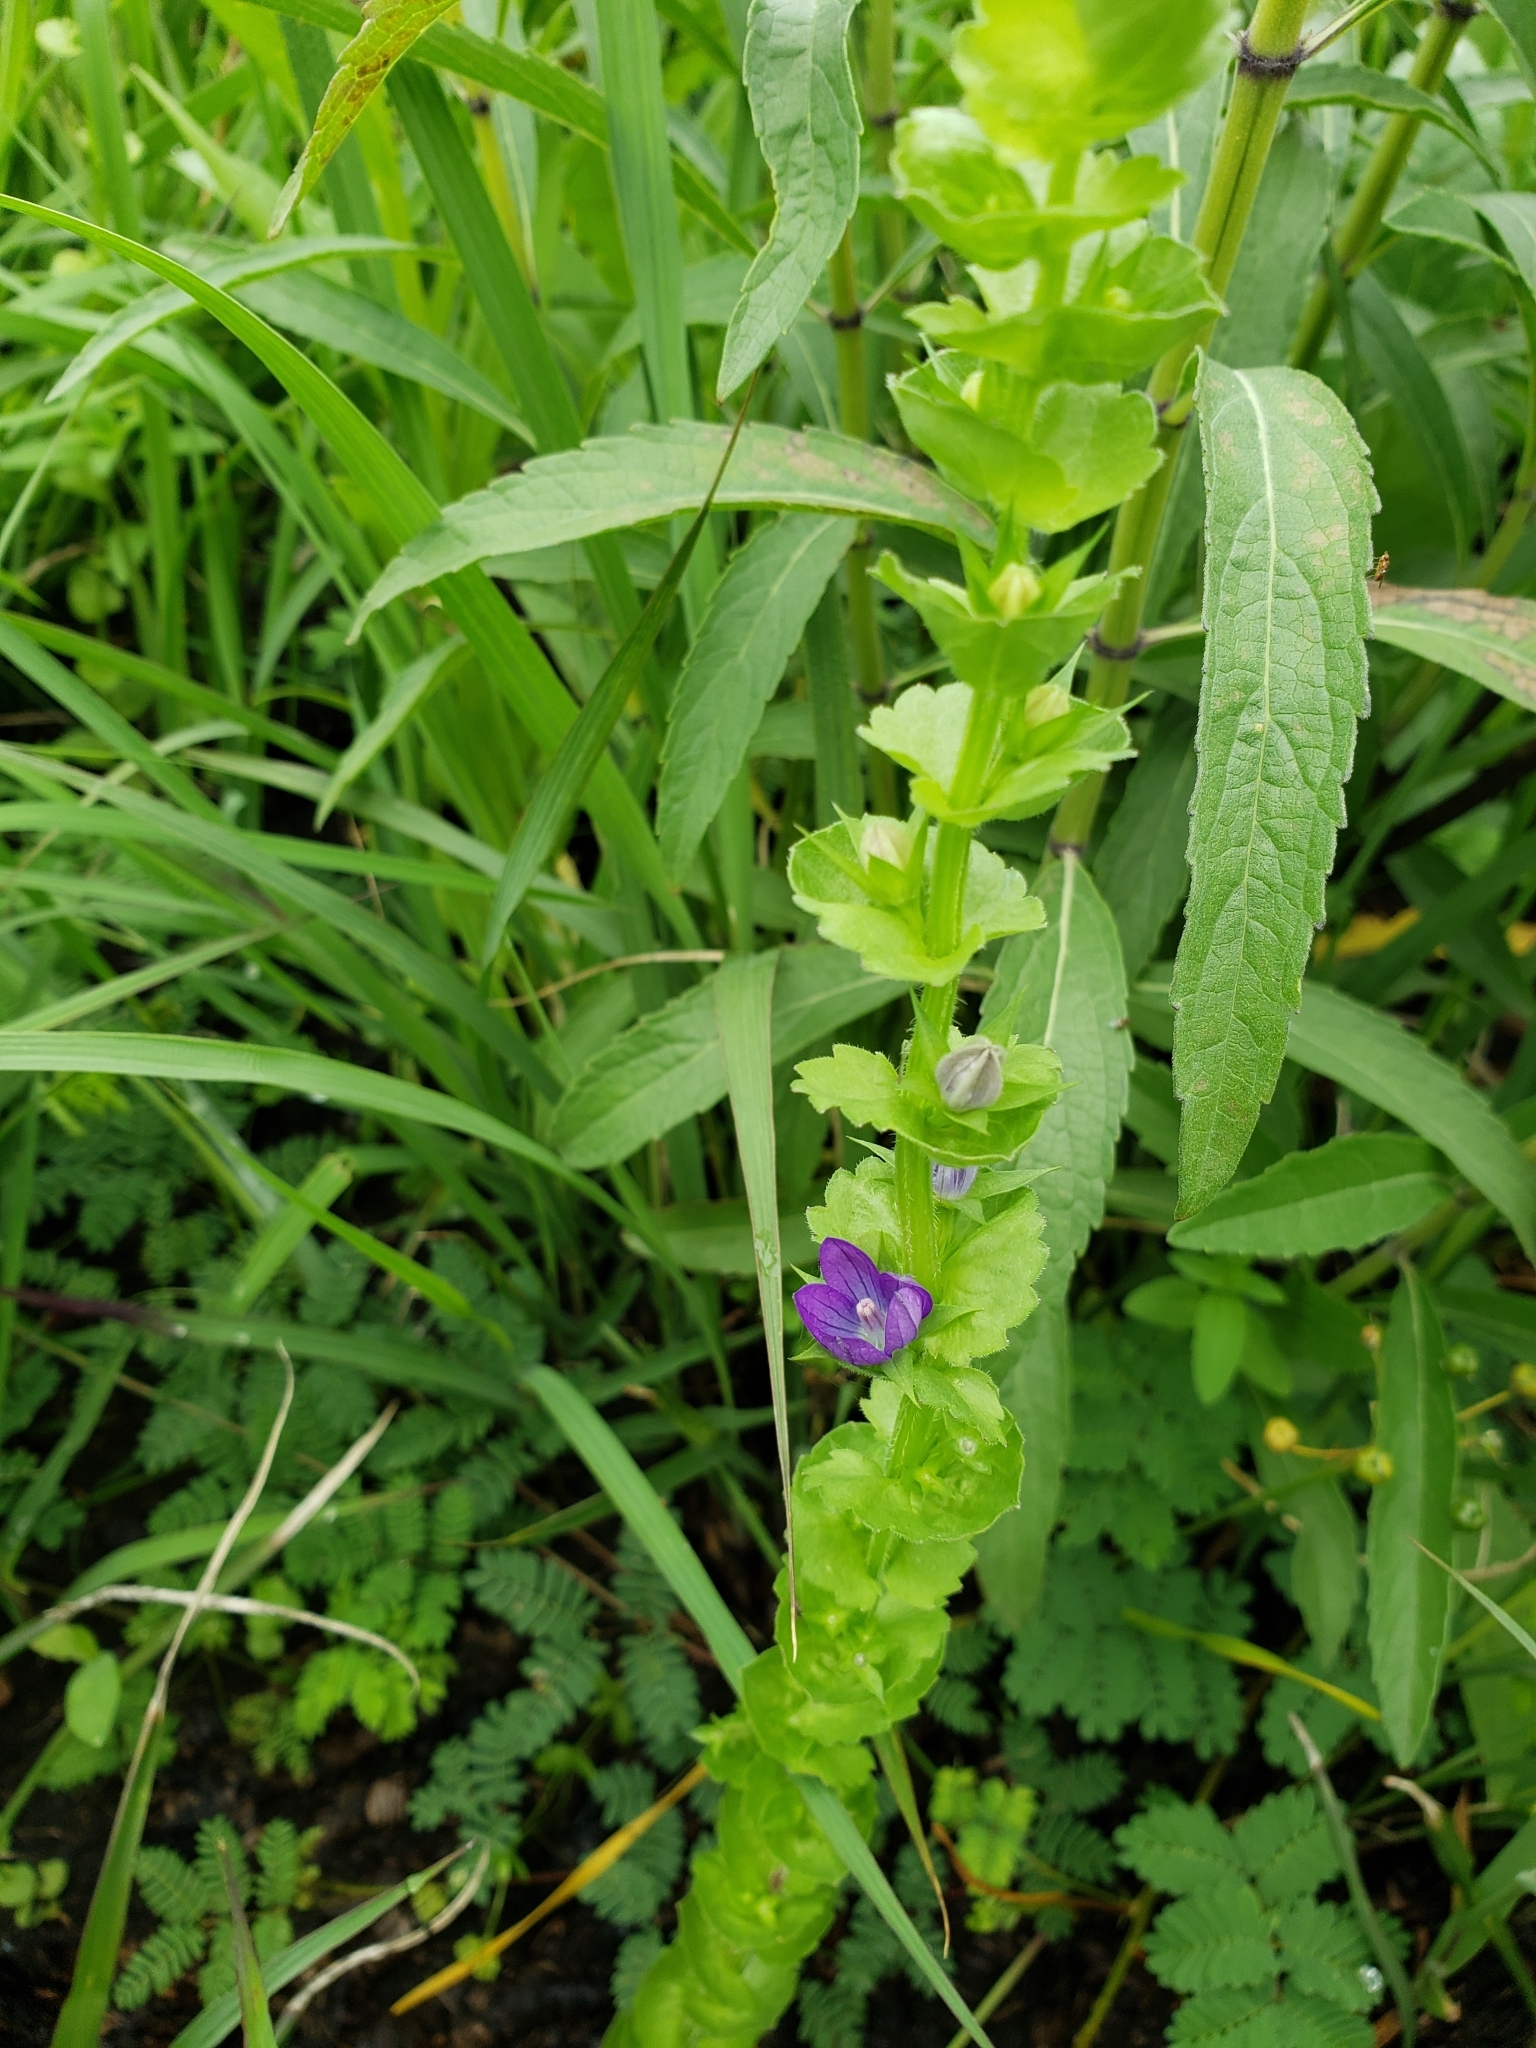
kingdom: Plantae
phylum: Tracheophyta
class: Magnoliopsida
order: Asterales
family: Campanulaceae
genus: Triodanis
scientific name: Triodanis perfoliata
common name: Clasping venus' looking-glass
